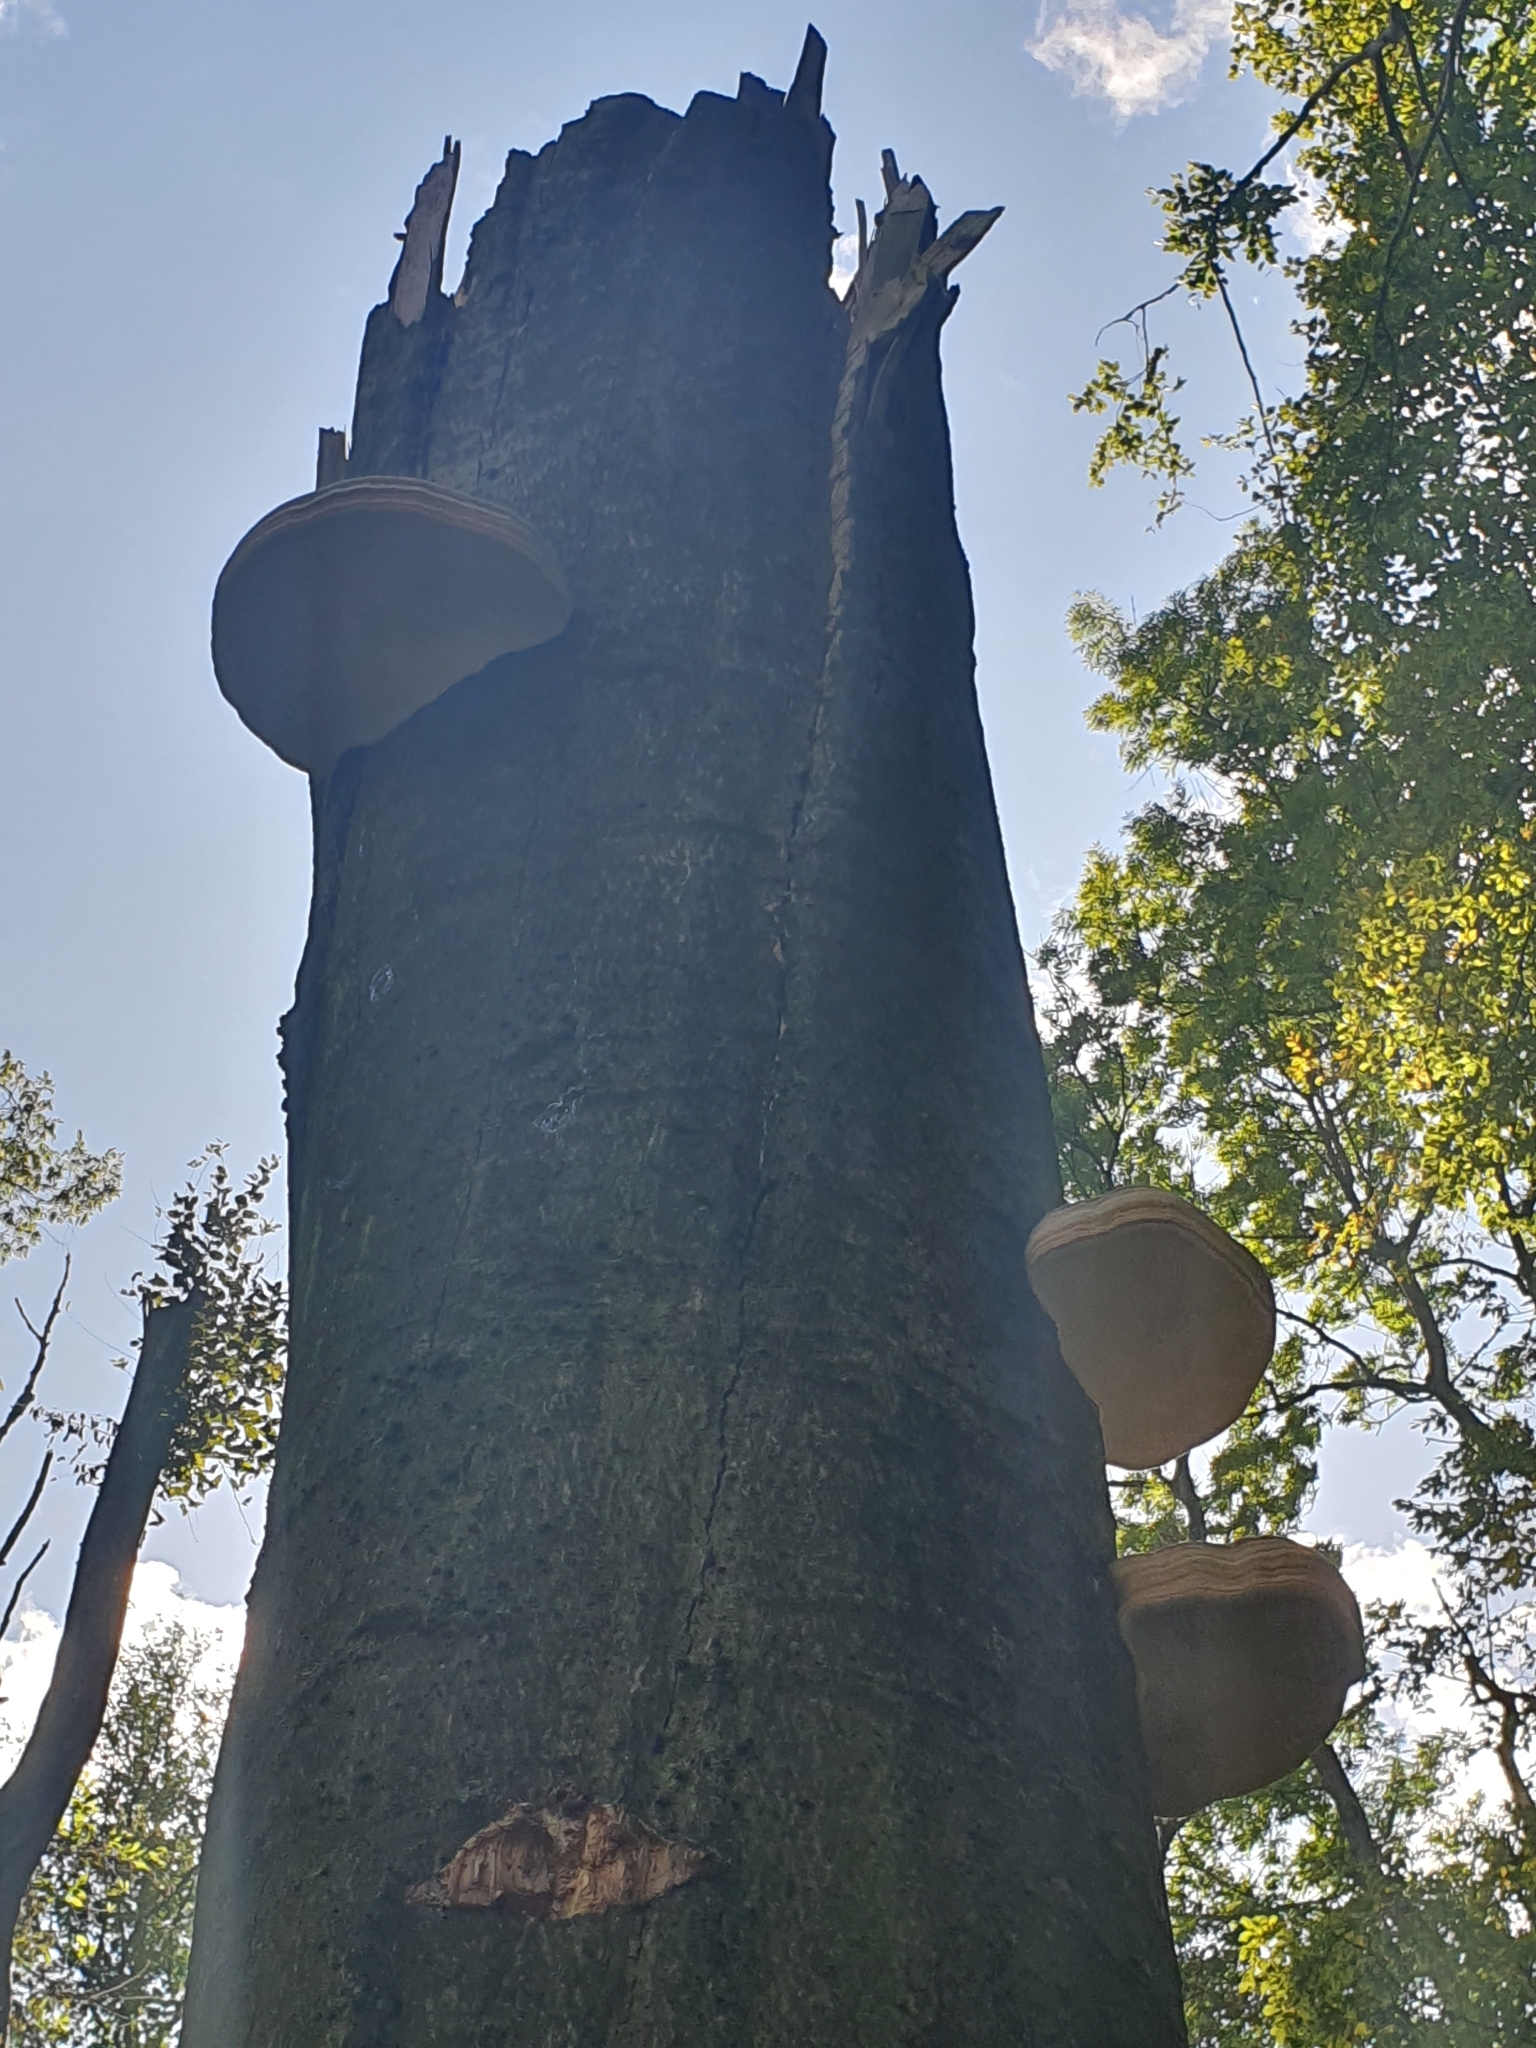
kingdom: Fungi
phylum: Basidiomycota
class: Agaricomycetes
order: Polyporales
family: Polyporaceae
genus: Fomes
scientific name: Fomes fomentarius
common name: Hoof fungus
